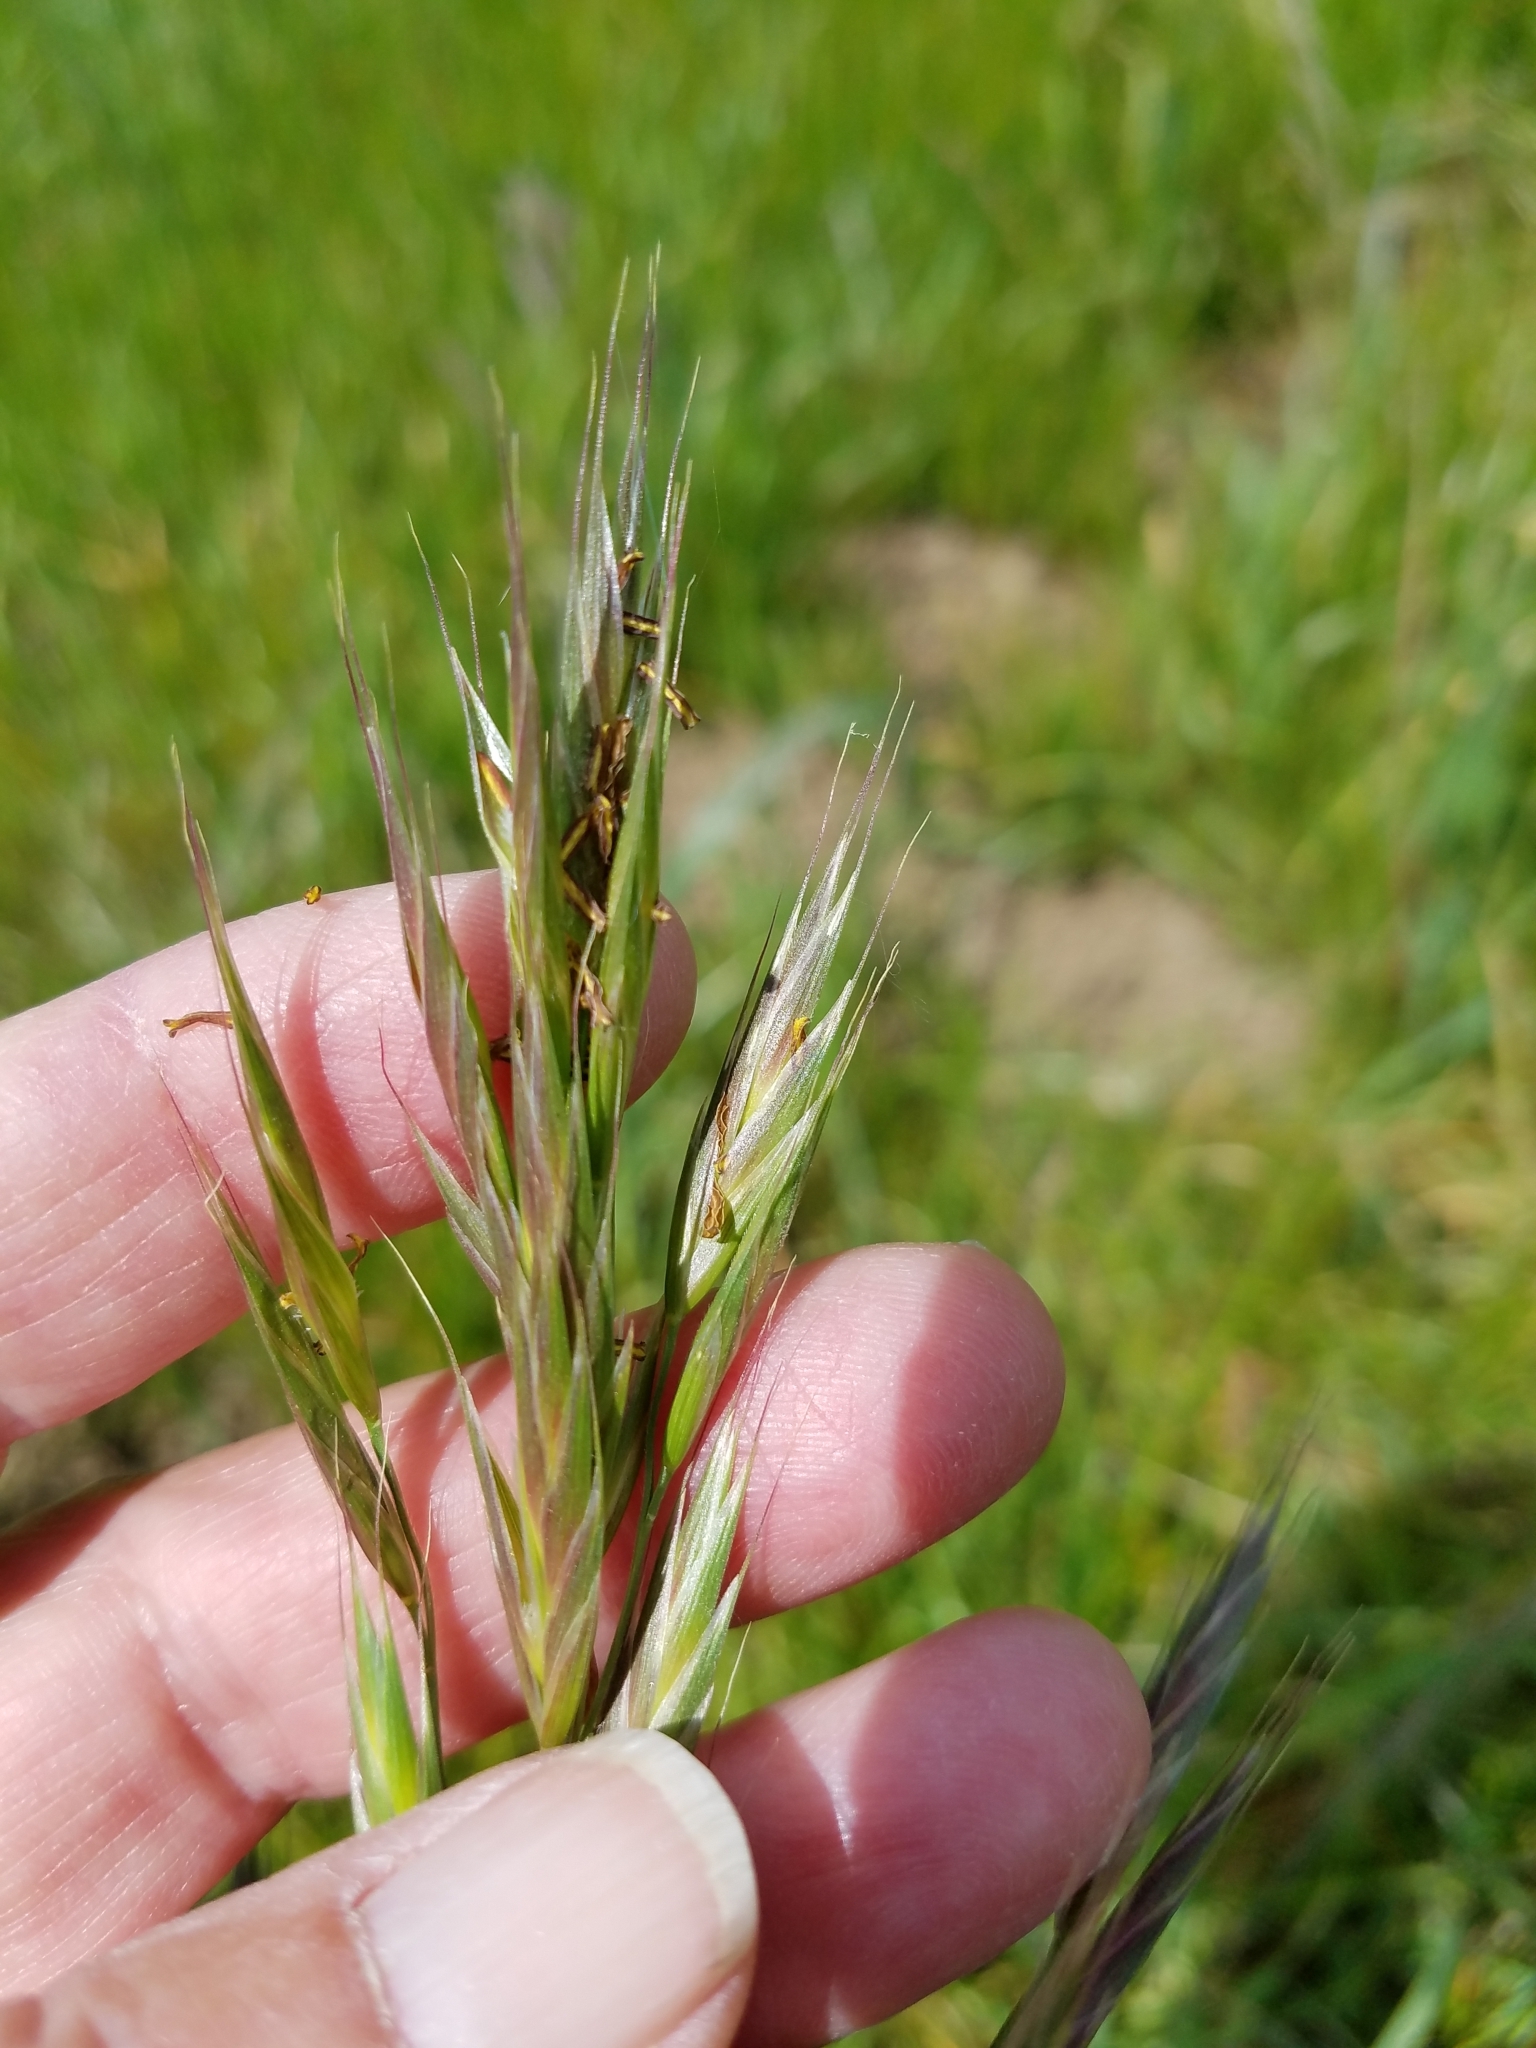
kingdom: Plantae
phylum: Tracheophyta
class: Liliopsida
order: Poales
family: Poaceae
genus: Bromus
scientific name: Bromus carinatus
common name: Mountain brome
